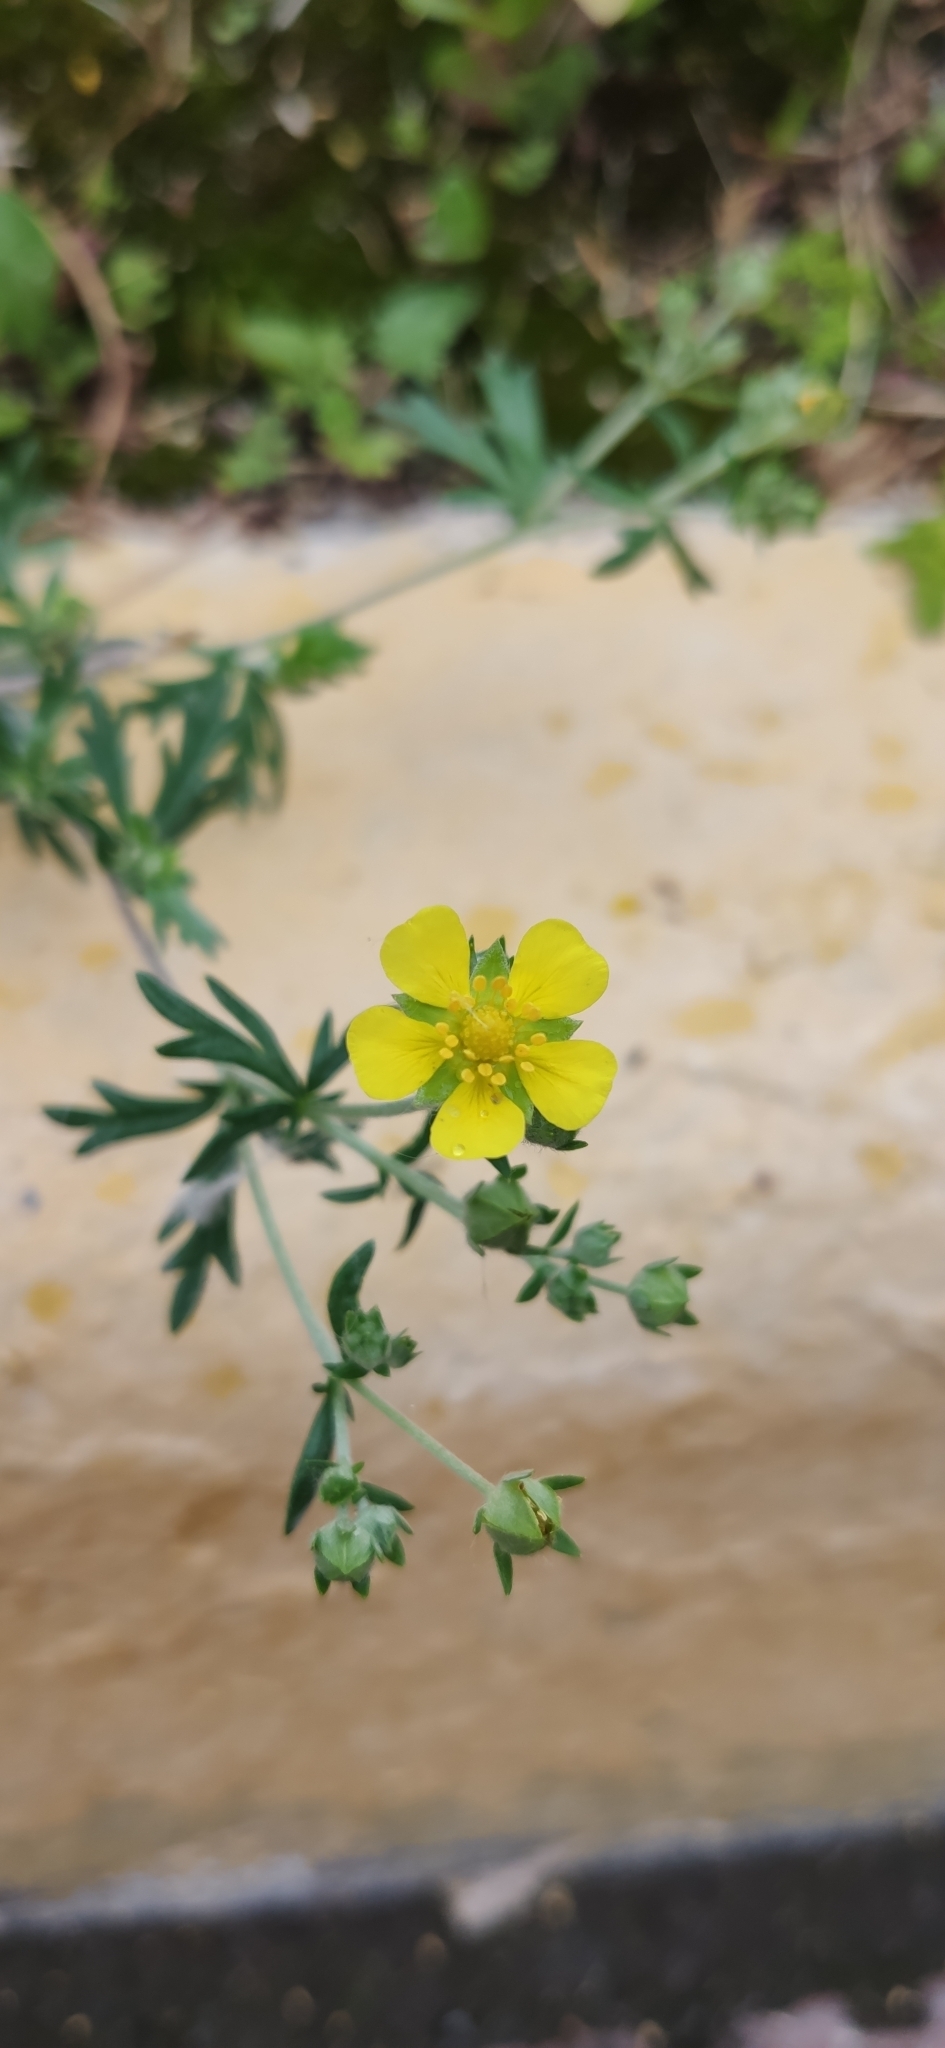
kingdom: Plantae
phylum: Tracheophyta
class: Magnoliopsida
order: Rosales
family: Rosaceae
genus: Potentilla
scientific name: Potentilla argentea
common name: Hoary cinquefoil
